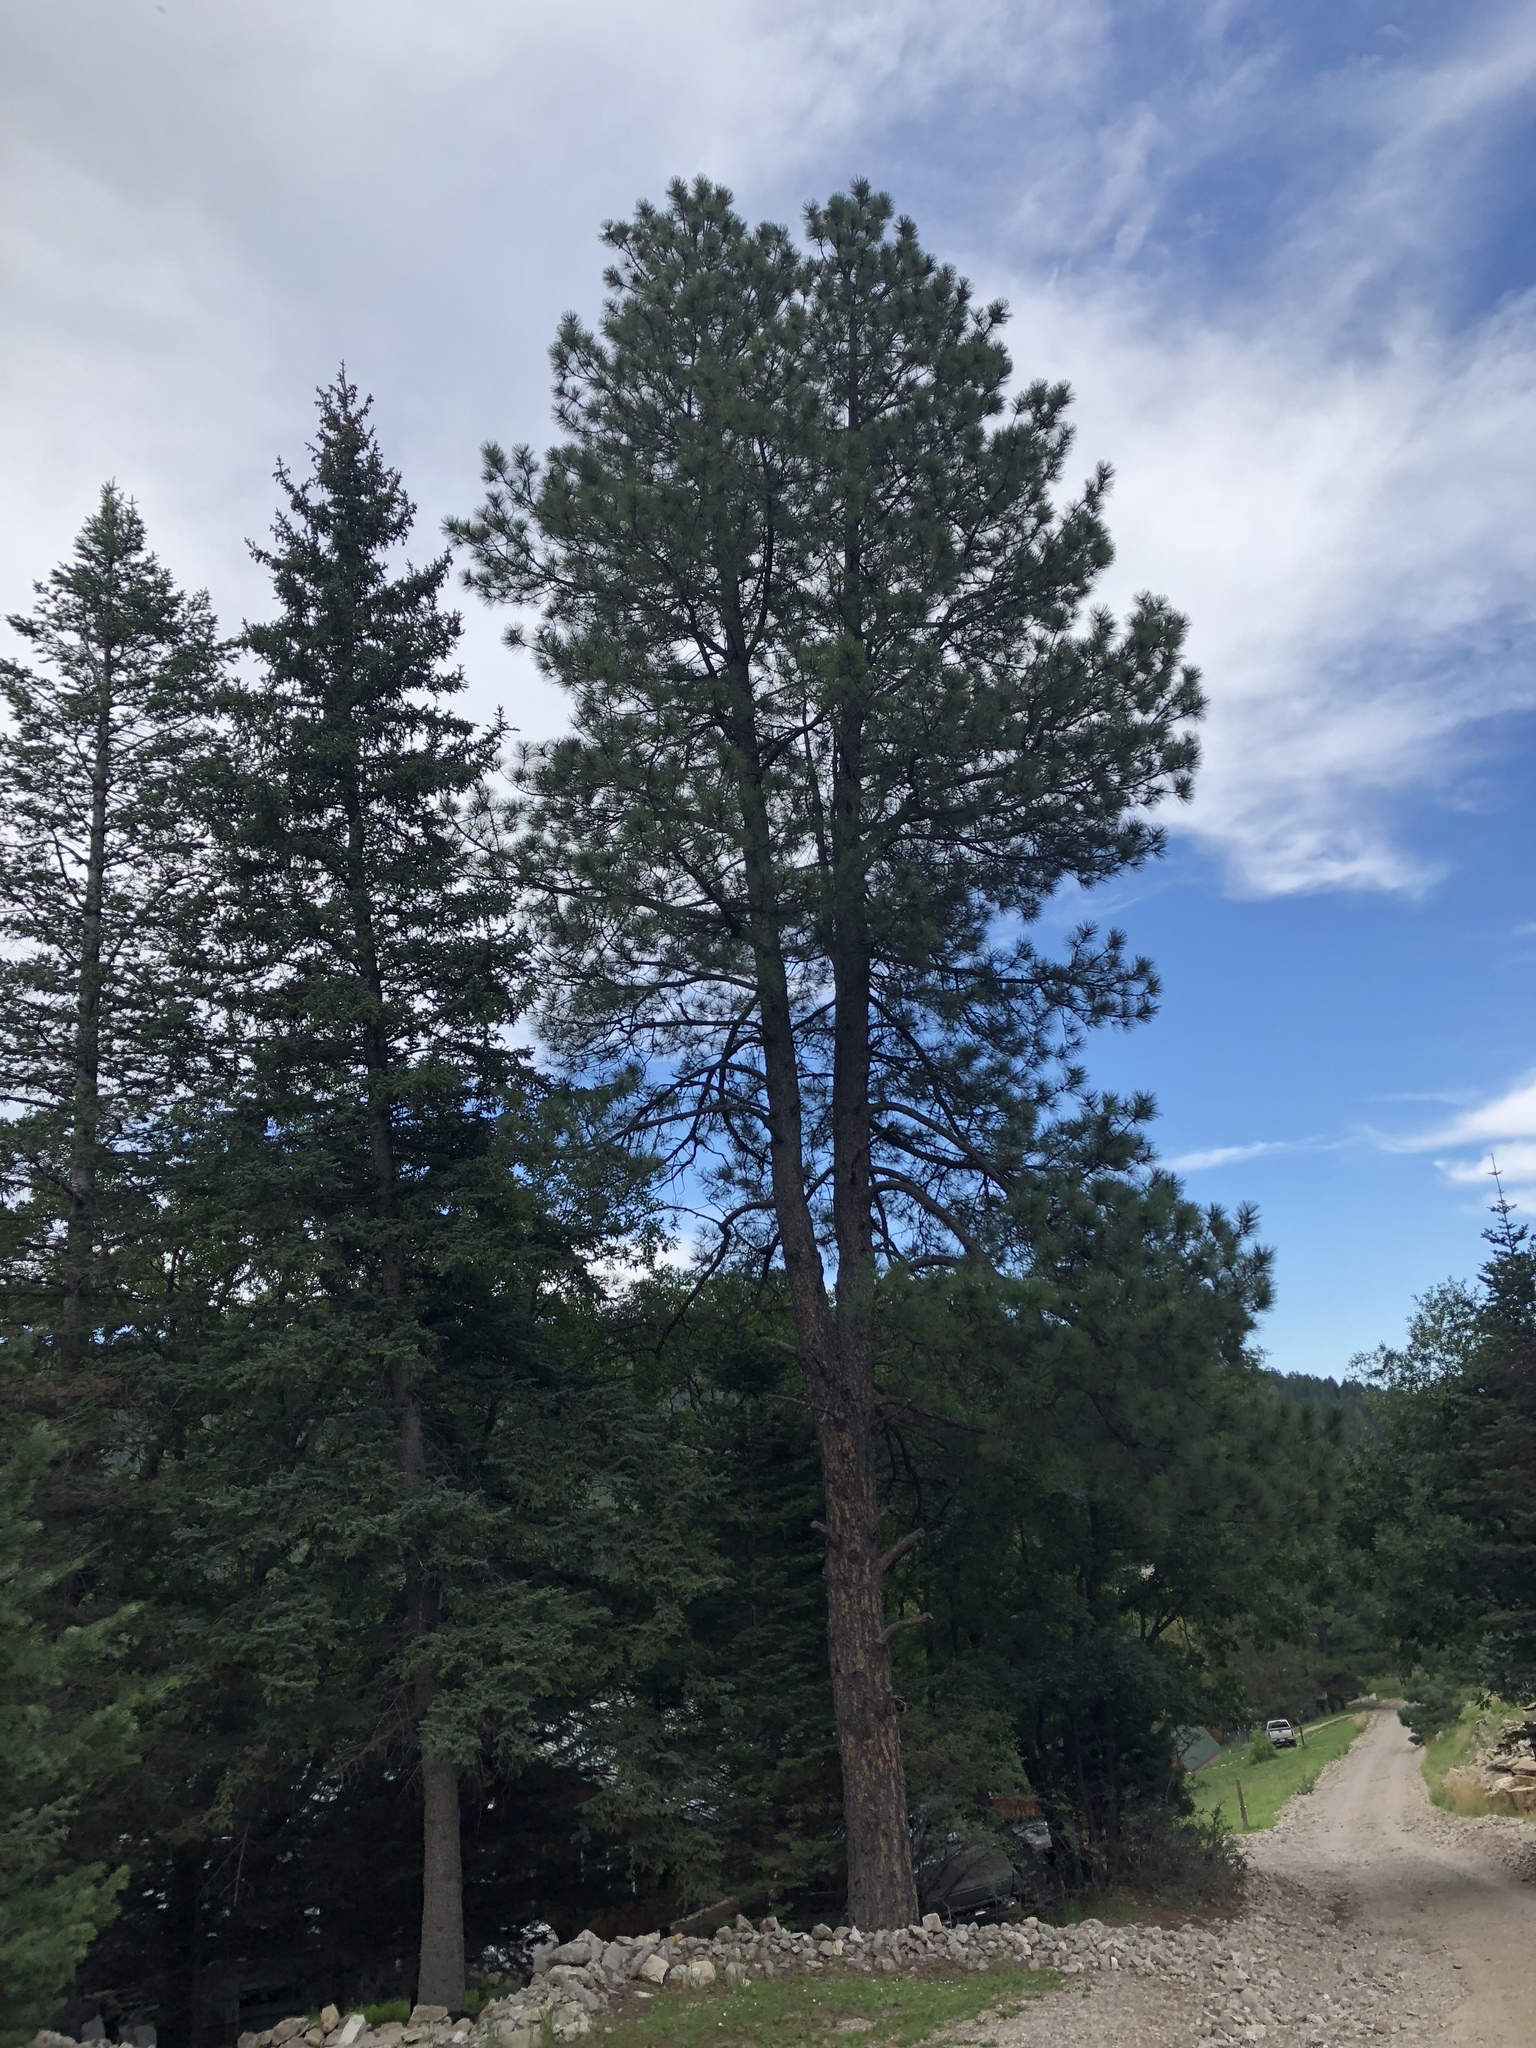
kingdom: Plantae
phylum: Tracheophyta
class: Pinopsida
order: Pinales
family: Pinaceae
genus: Pinus
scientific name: Pinus ponderosa
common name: Western yellow-pine
